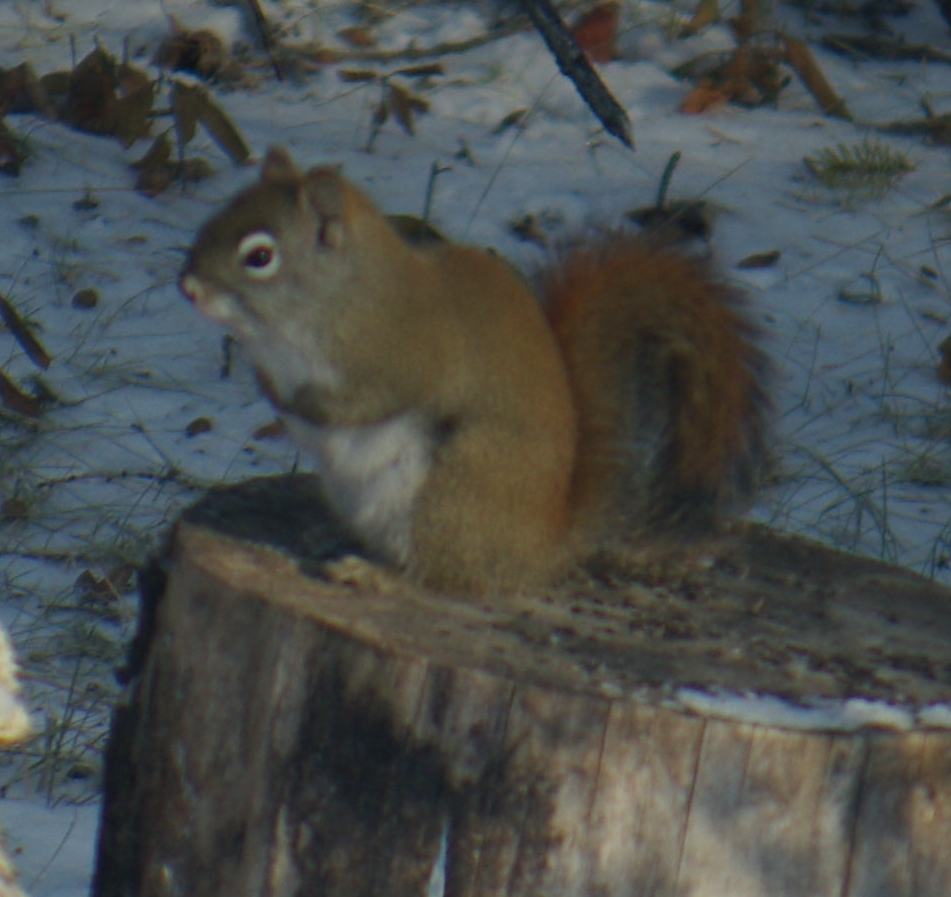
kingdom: Animalia
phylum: Chordata
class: Mammalia
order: Rodentia
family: Sciuridae
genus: Tamiasciurus
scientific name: Tamiasciurus hudsonicus
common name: Red squirrel
